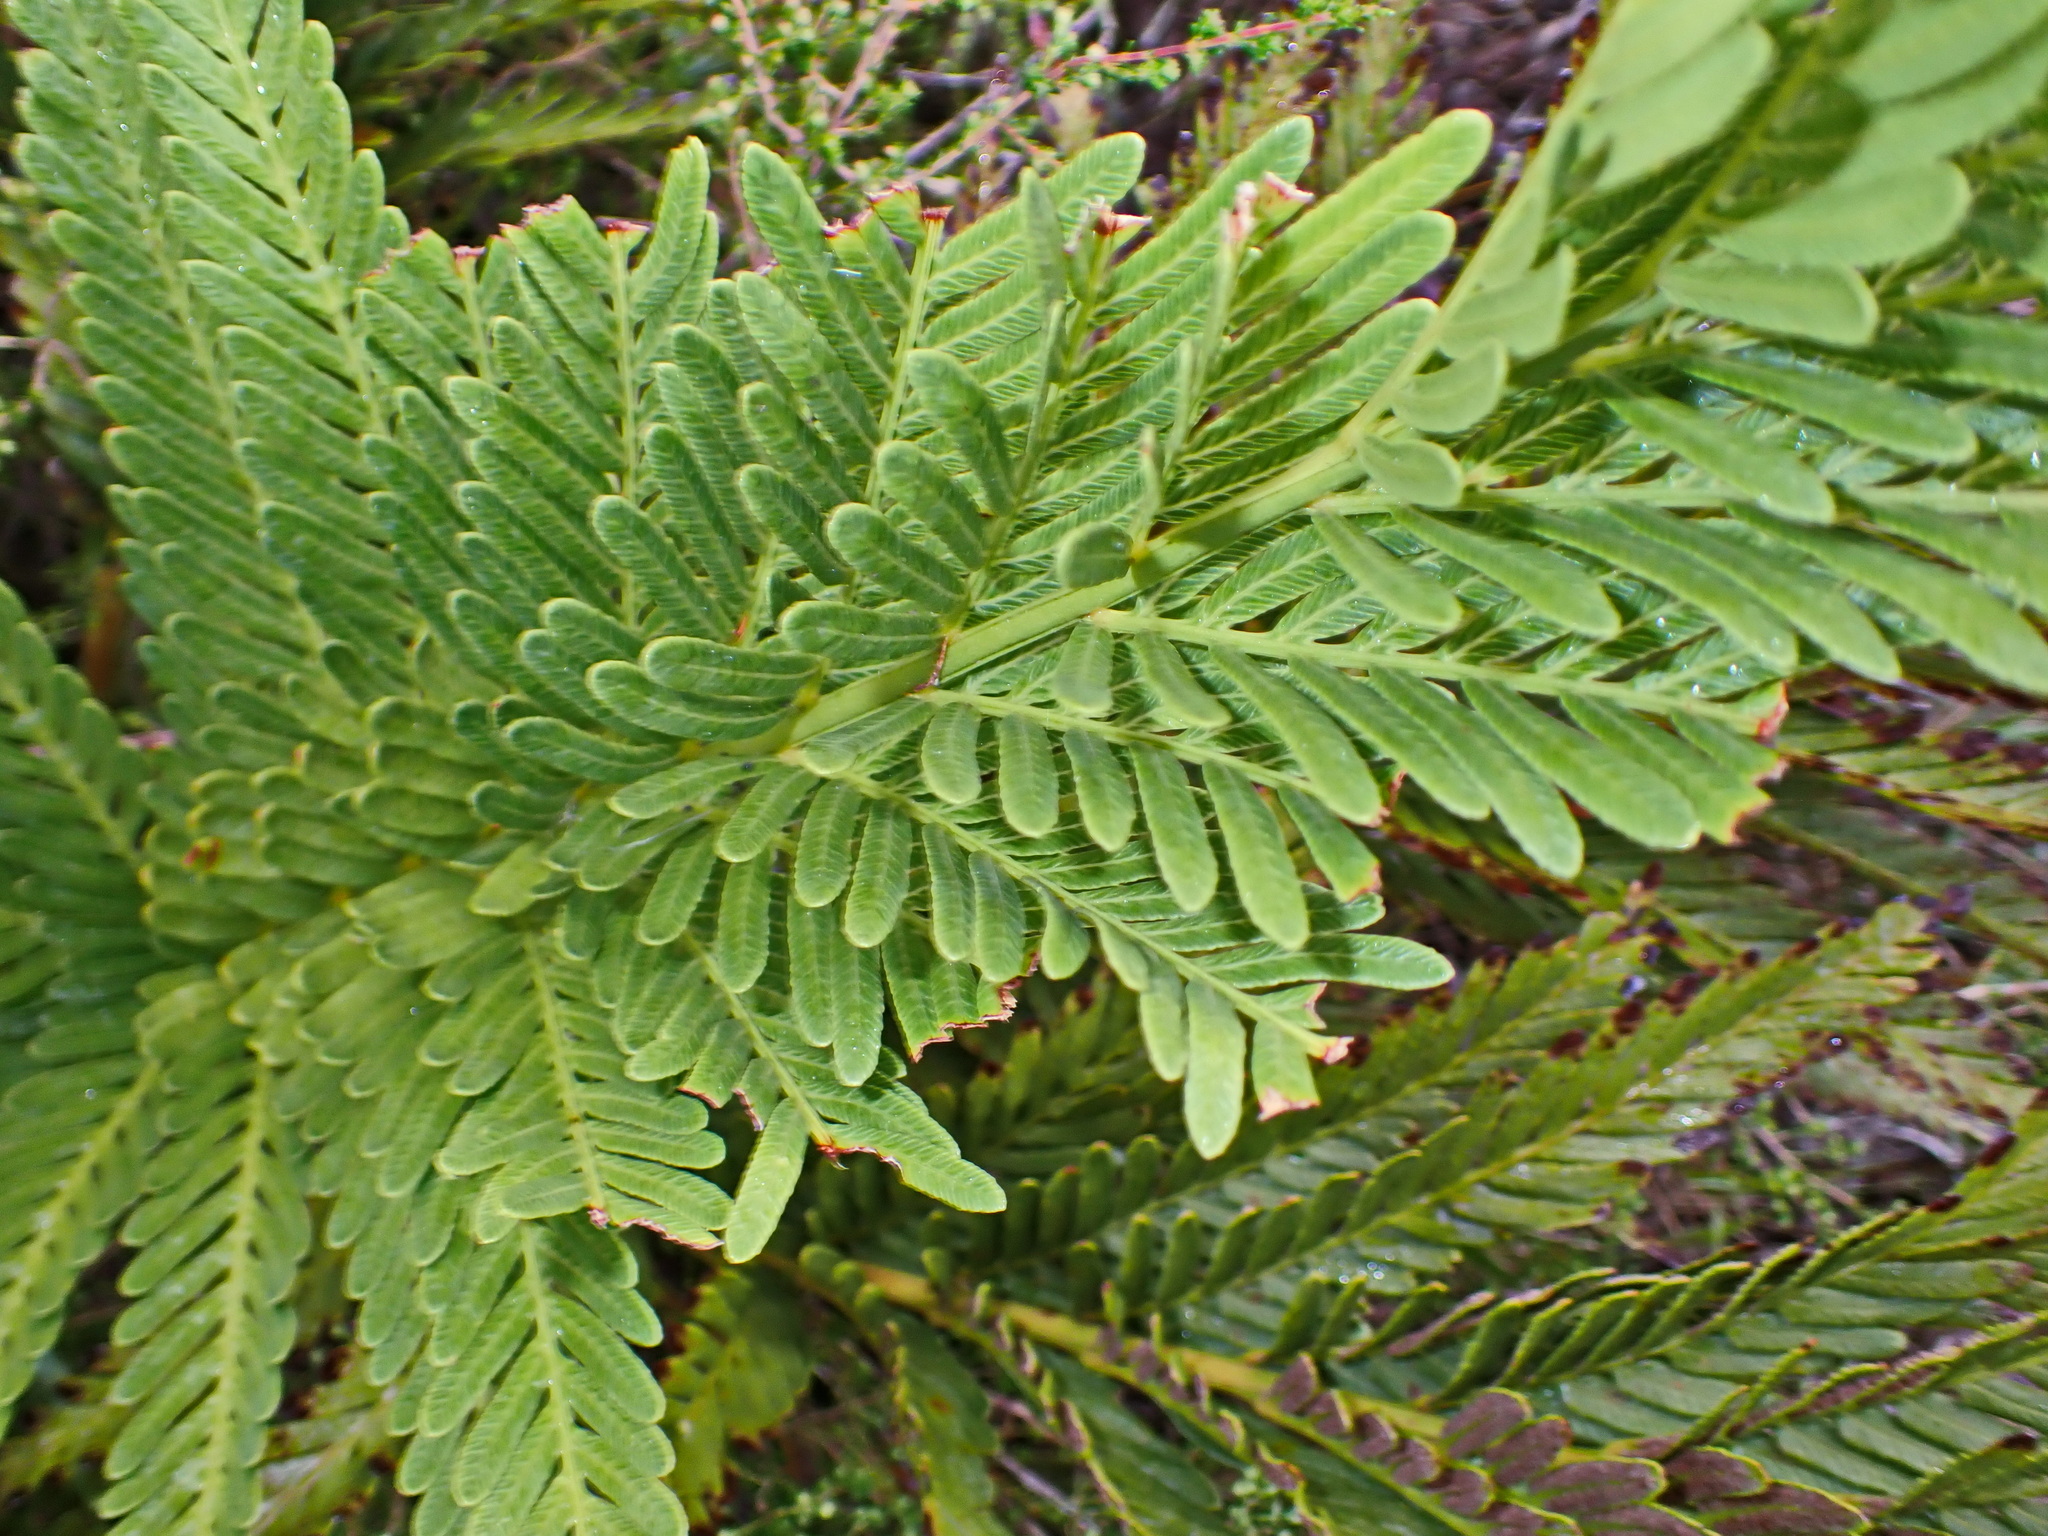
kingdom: Plantae
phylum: Tracheophyta
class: Polypodiopsida
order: Osmundales
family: Osmundaceae
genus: Todea
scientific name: Todea barbara
